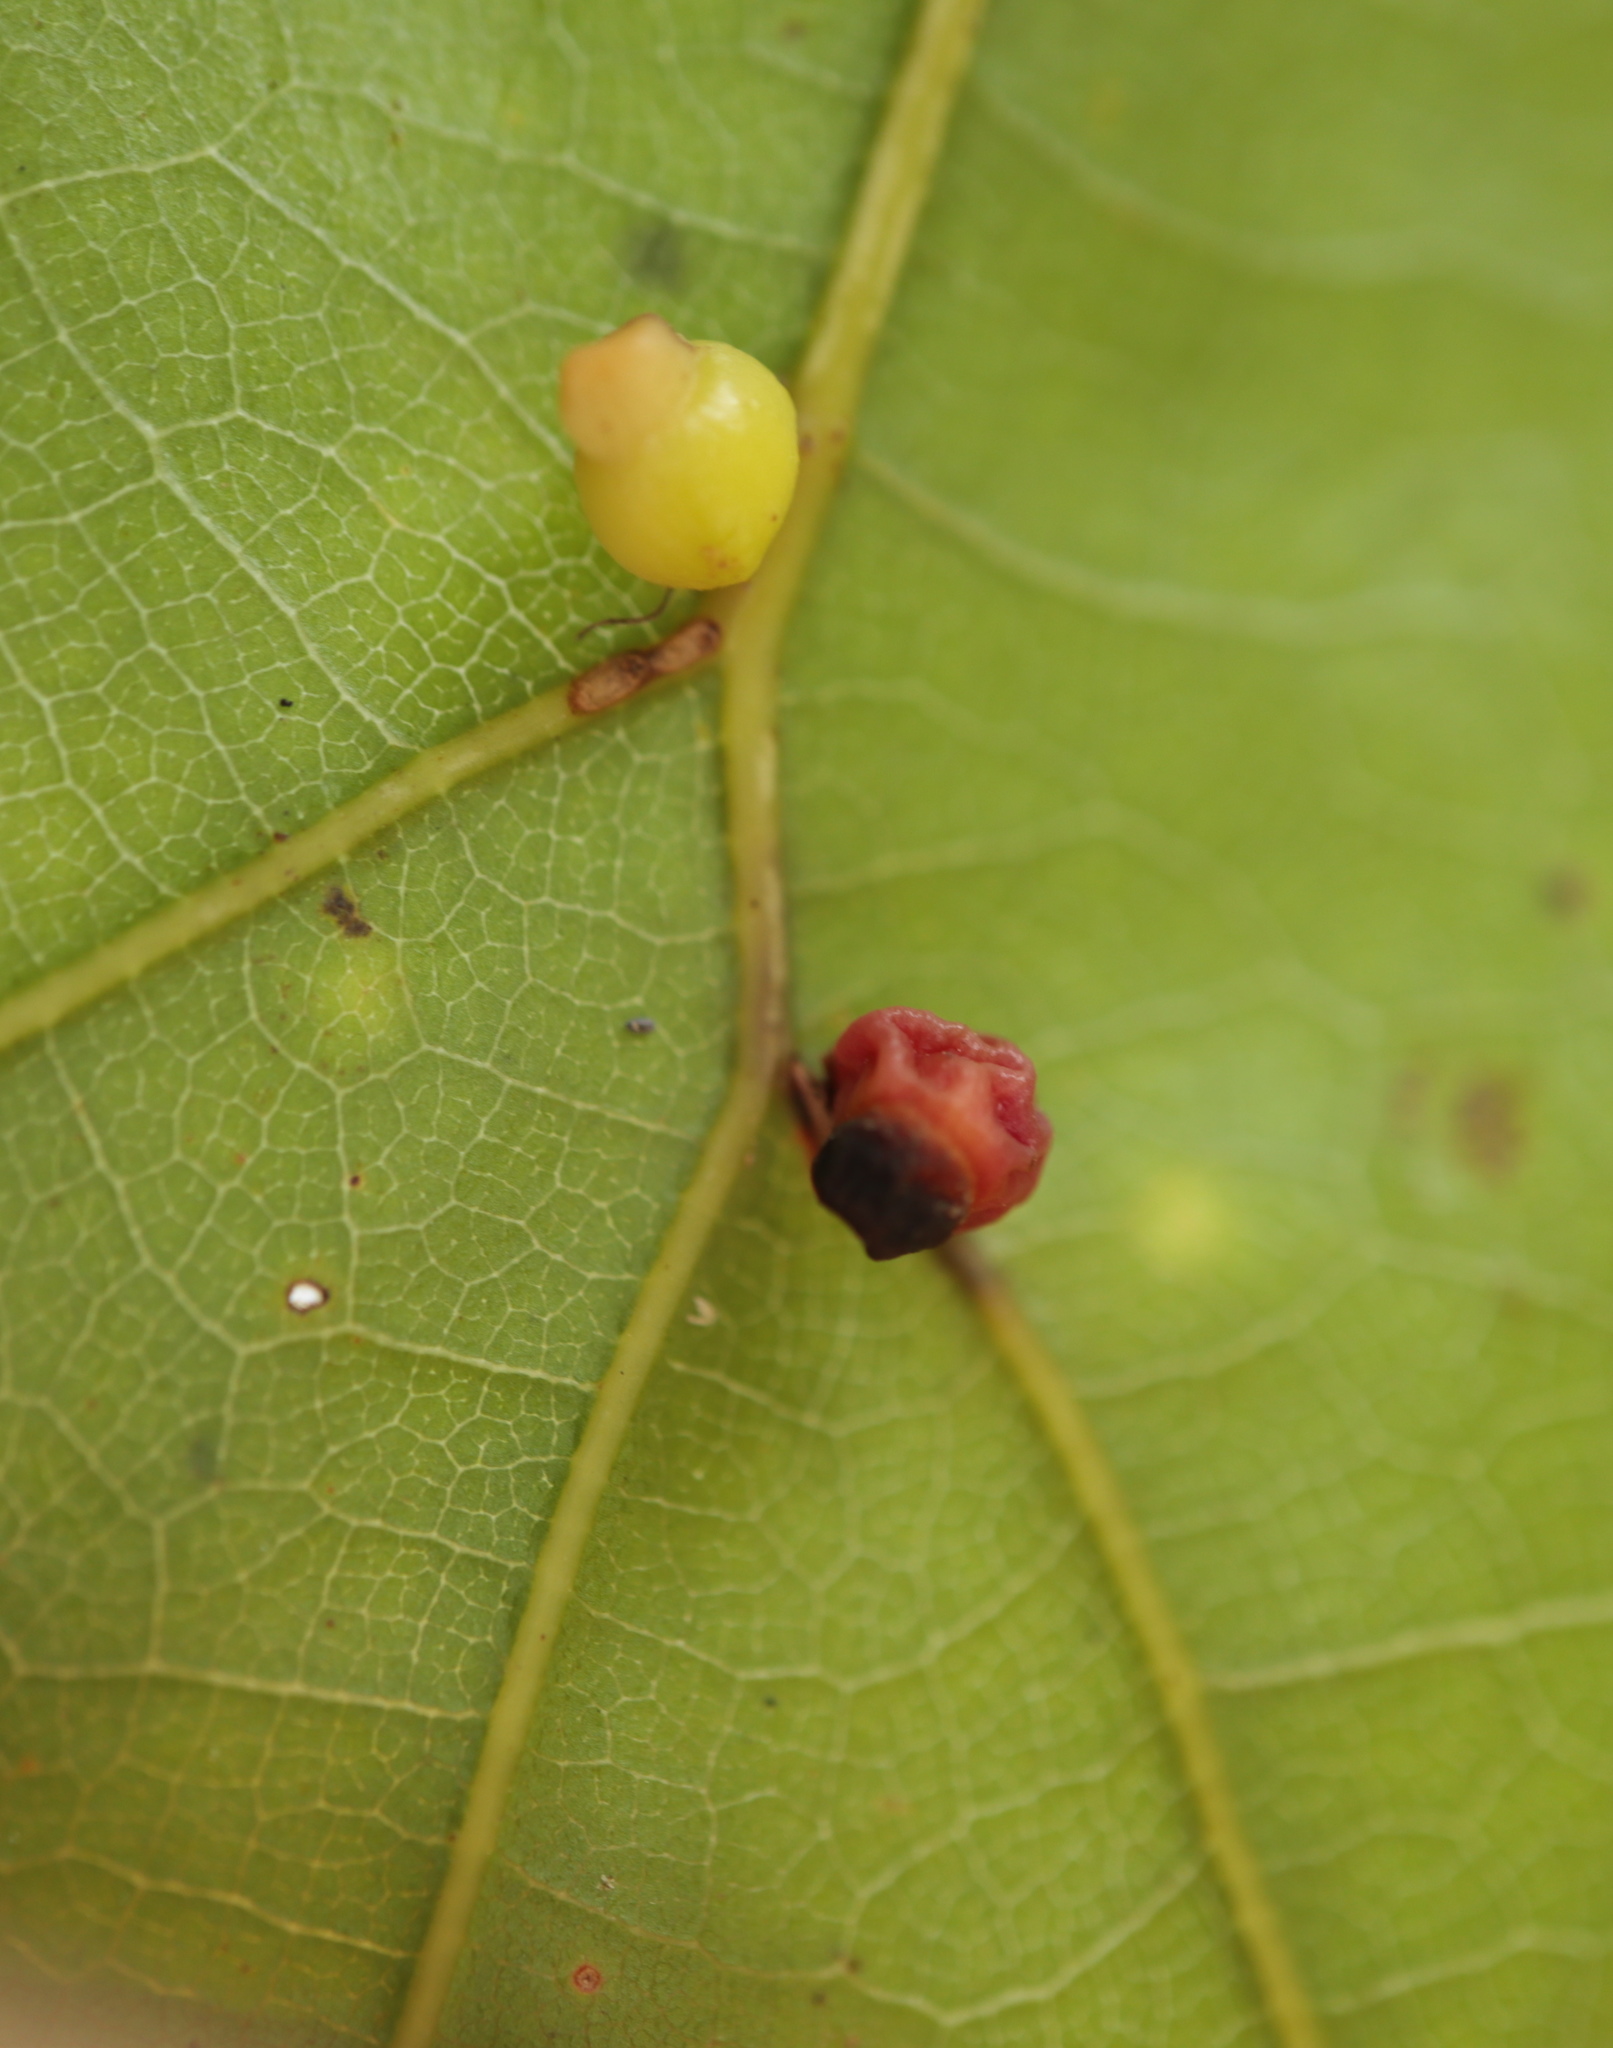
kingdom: Animalia
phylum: Arthropoda
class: Insecta
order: Hymenoptera
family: Cynipidae
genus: Kokkocynips
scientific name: Kokkocynips rileyi
